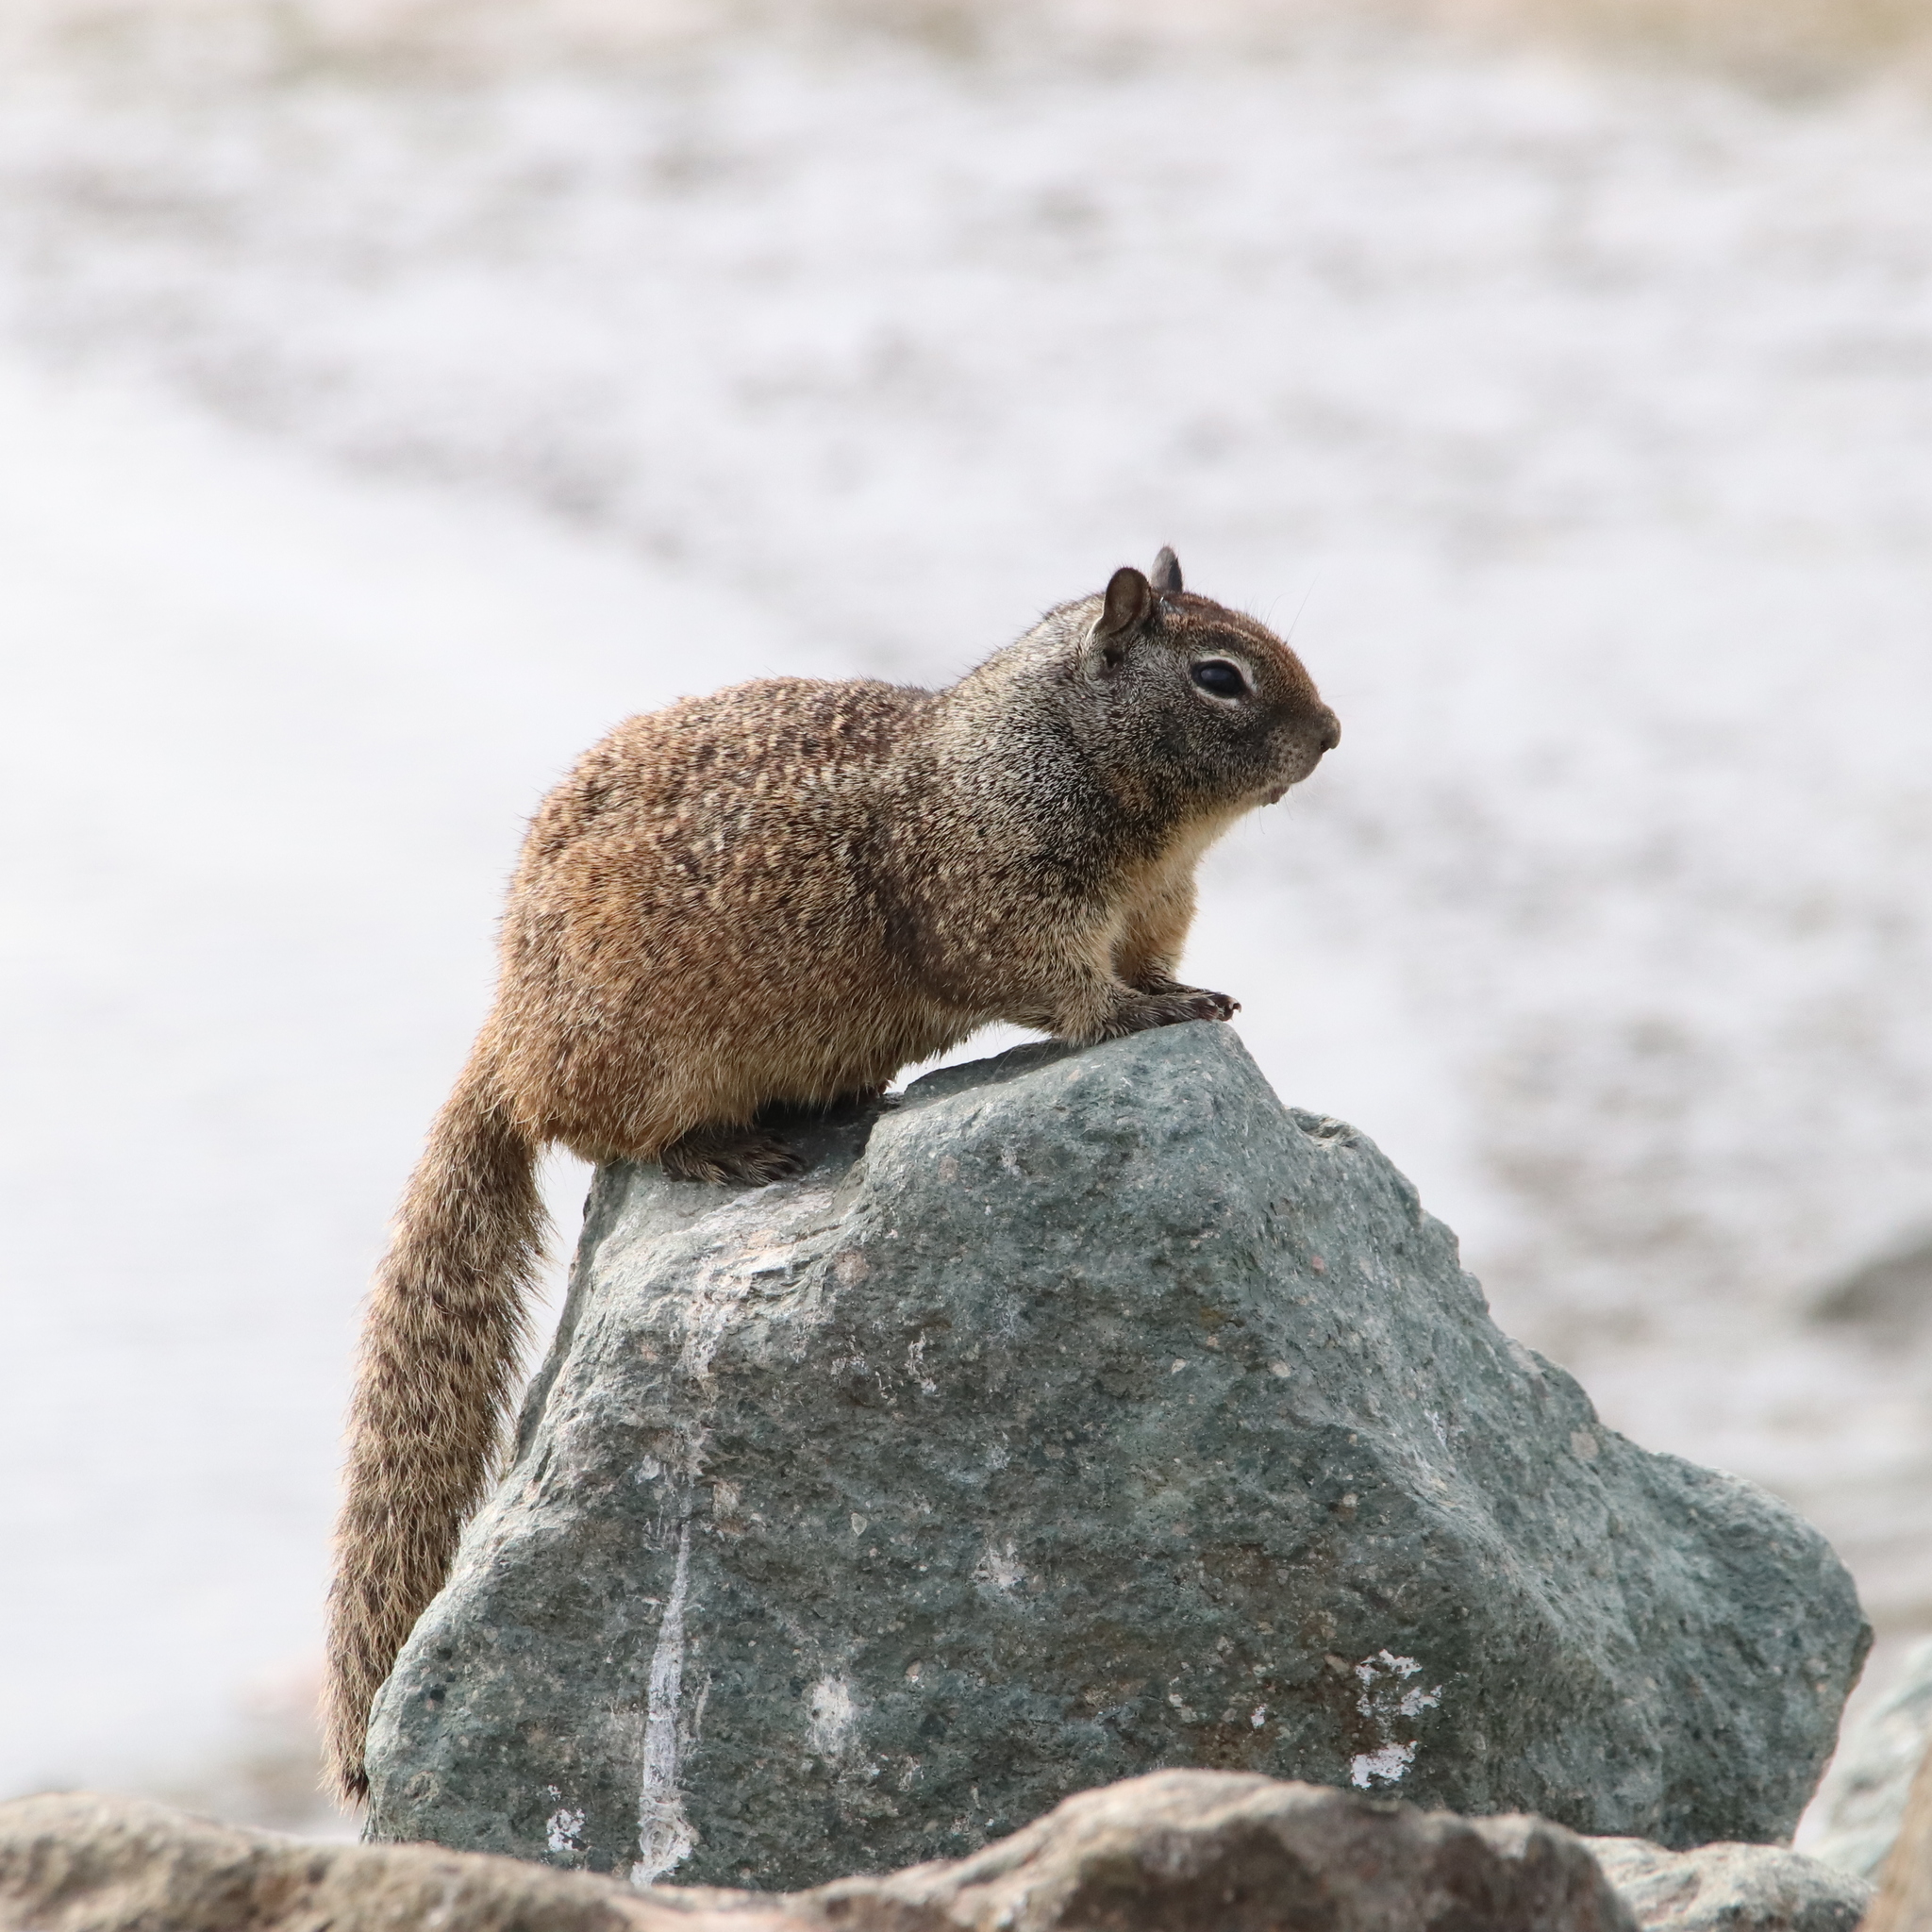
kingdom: Animalia
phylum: Chordata
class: Mammalia
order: Rodentia
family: Sciuridae
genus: Otospermophilus
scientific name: Otospermophilus beecheyi
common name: California ground squirrel
